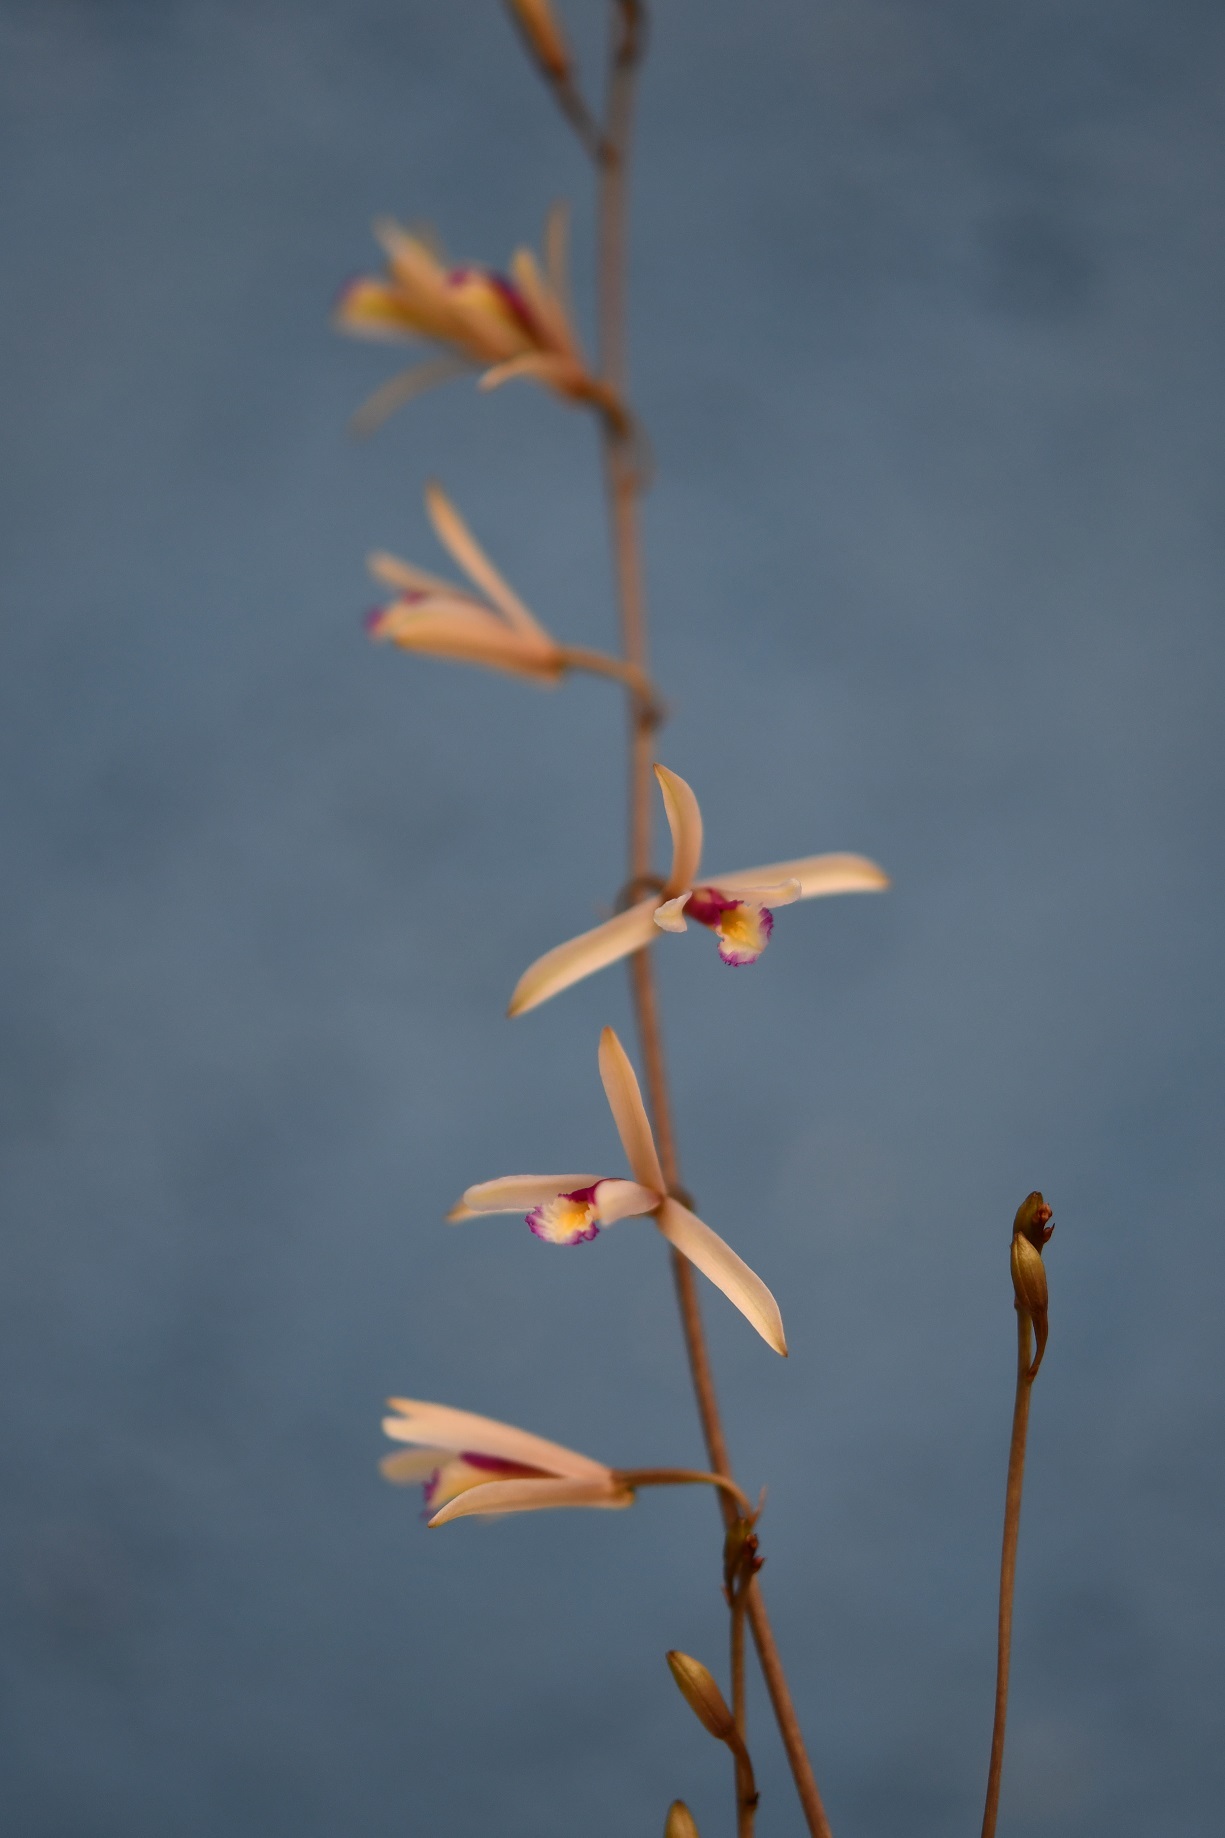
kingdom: Plantae
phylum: Tracheophyta
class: Liliopsida
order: Asparagales
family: Orchidaceae
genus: Bletia
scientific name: Bletia parkinsonii
